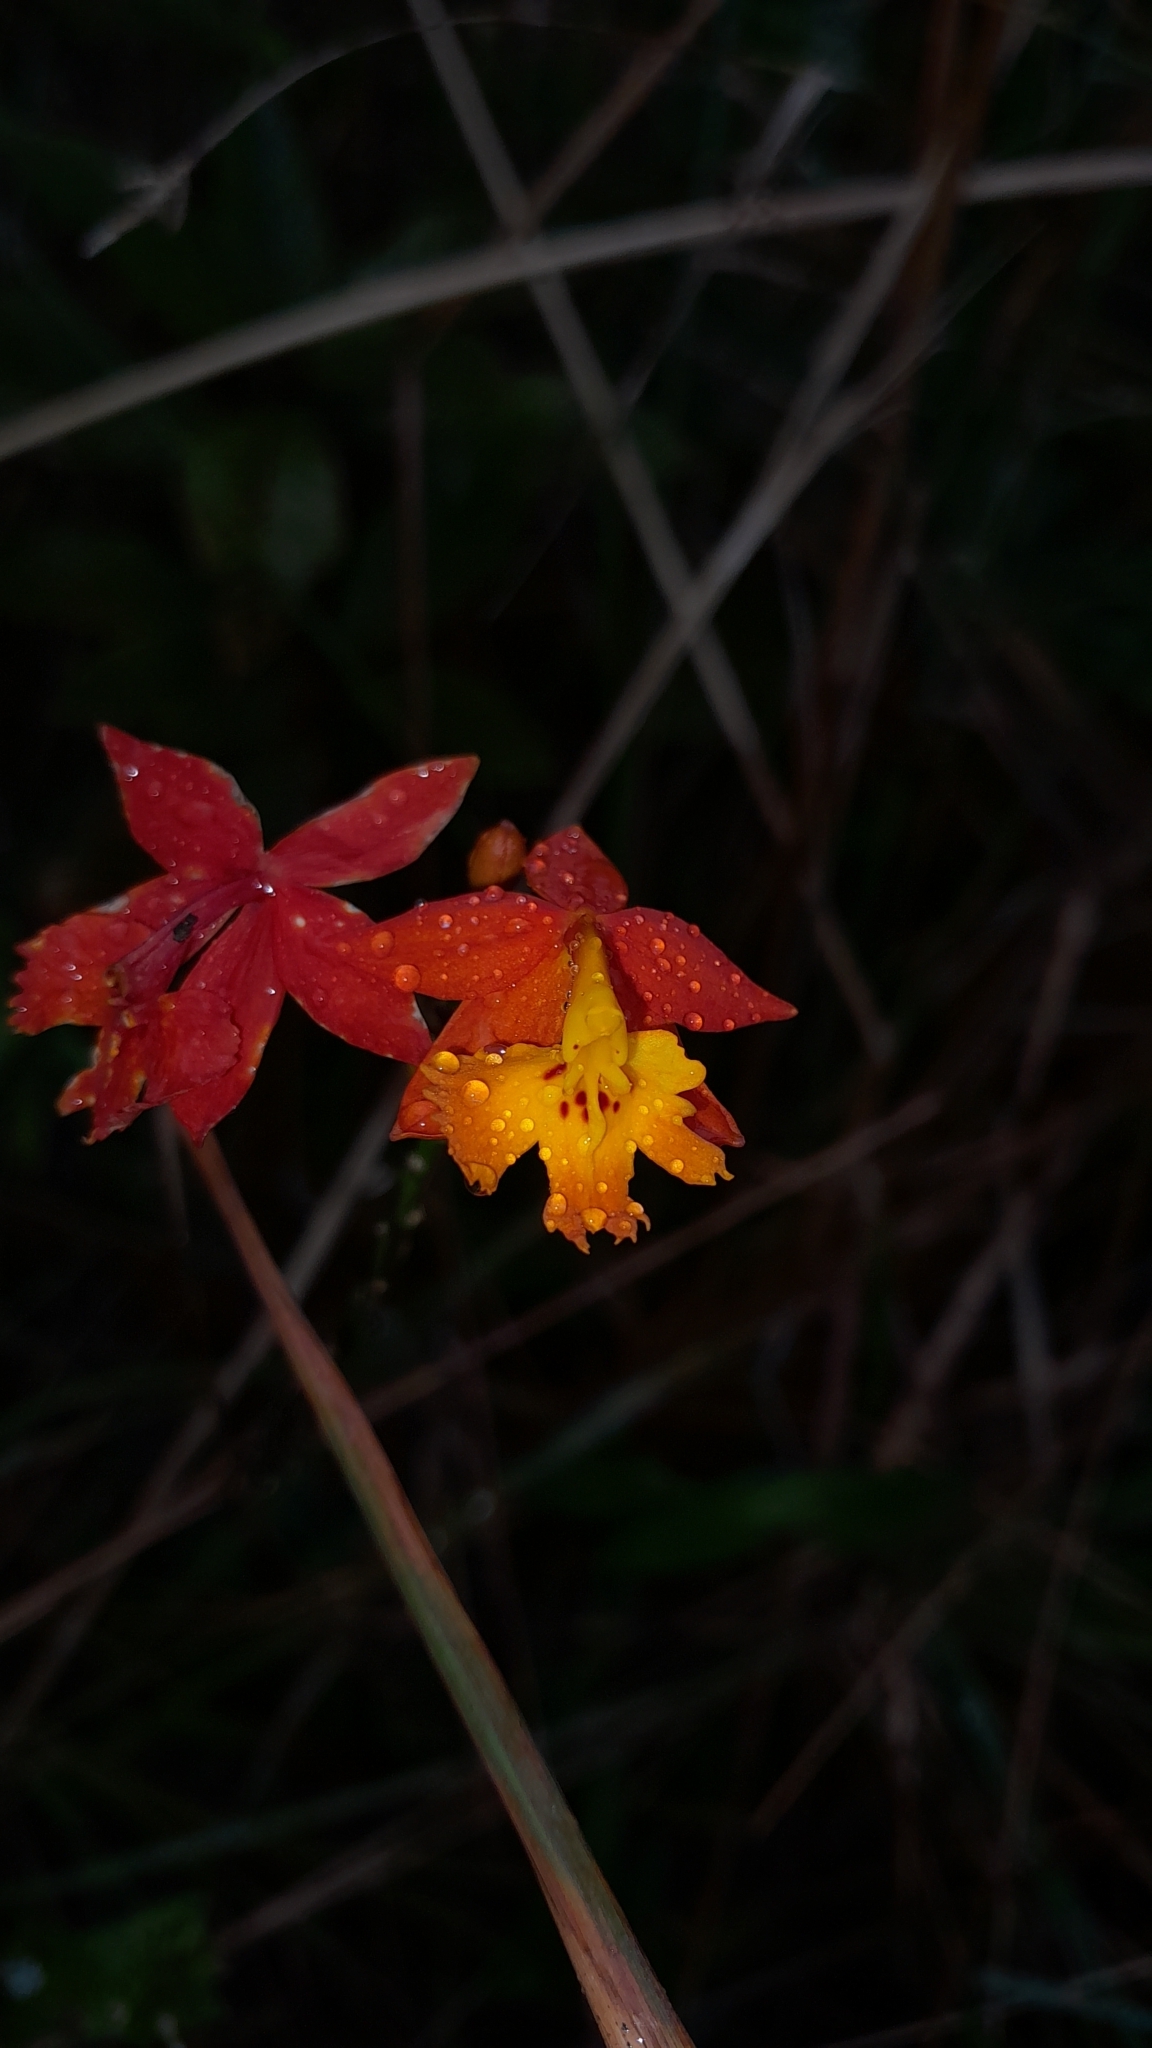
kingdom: Plantae
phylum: Tracheophyta
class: Liliopsida
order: Asparagales
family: Orchidaceae
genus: Epidendrum
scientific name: Epidendrum radicans
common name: Fire star orchid
